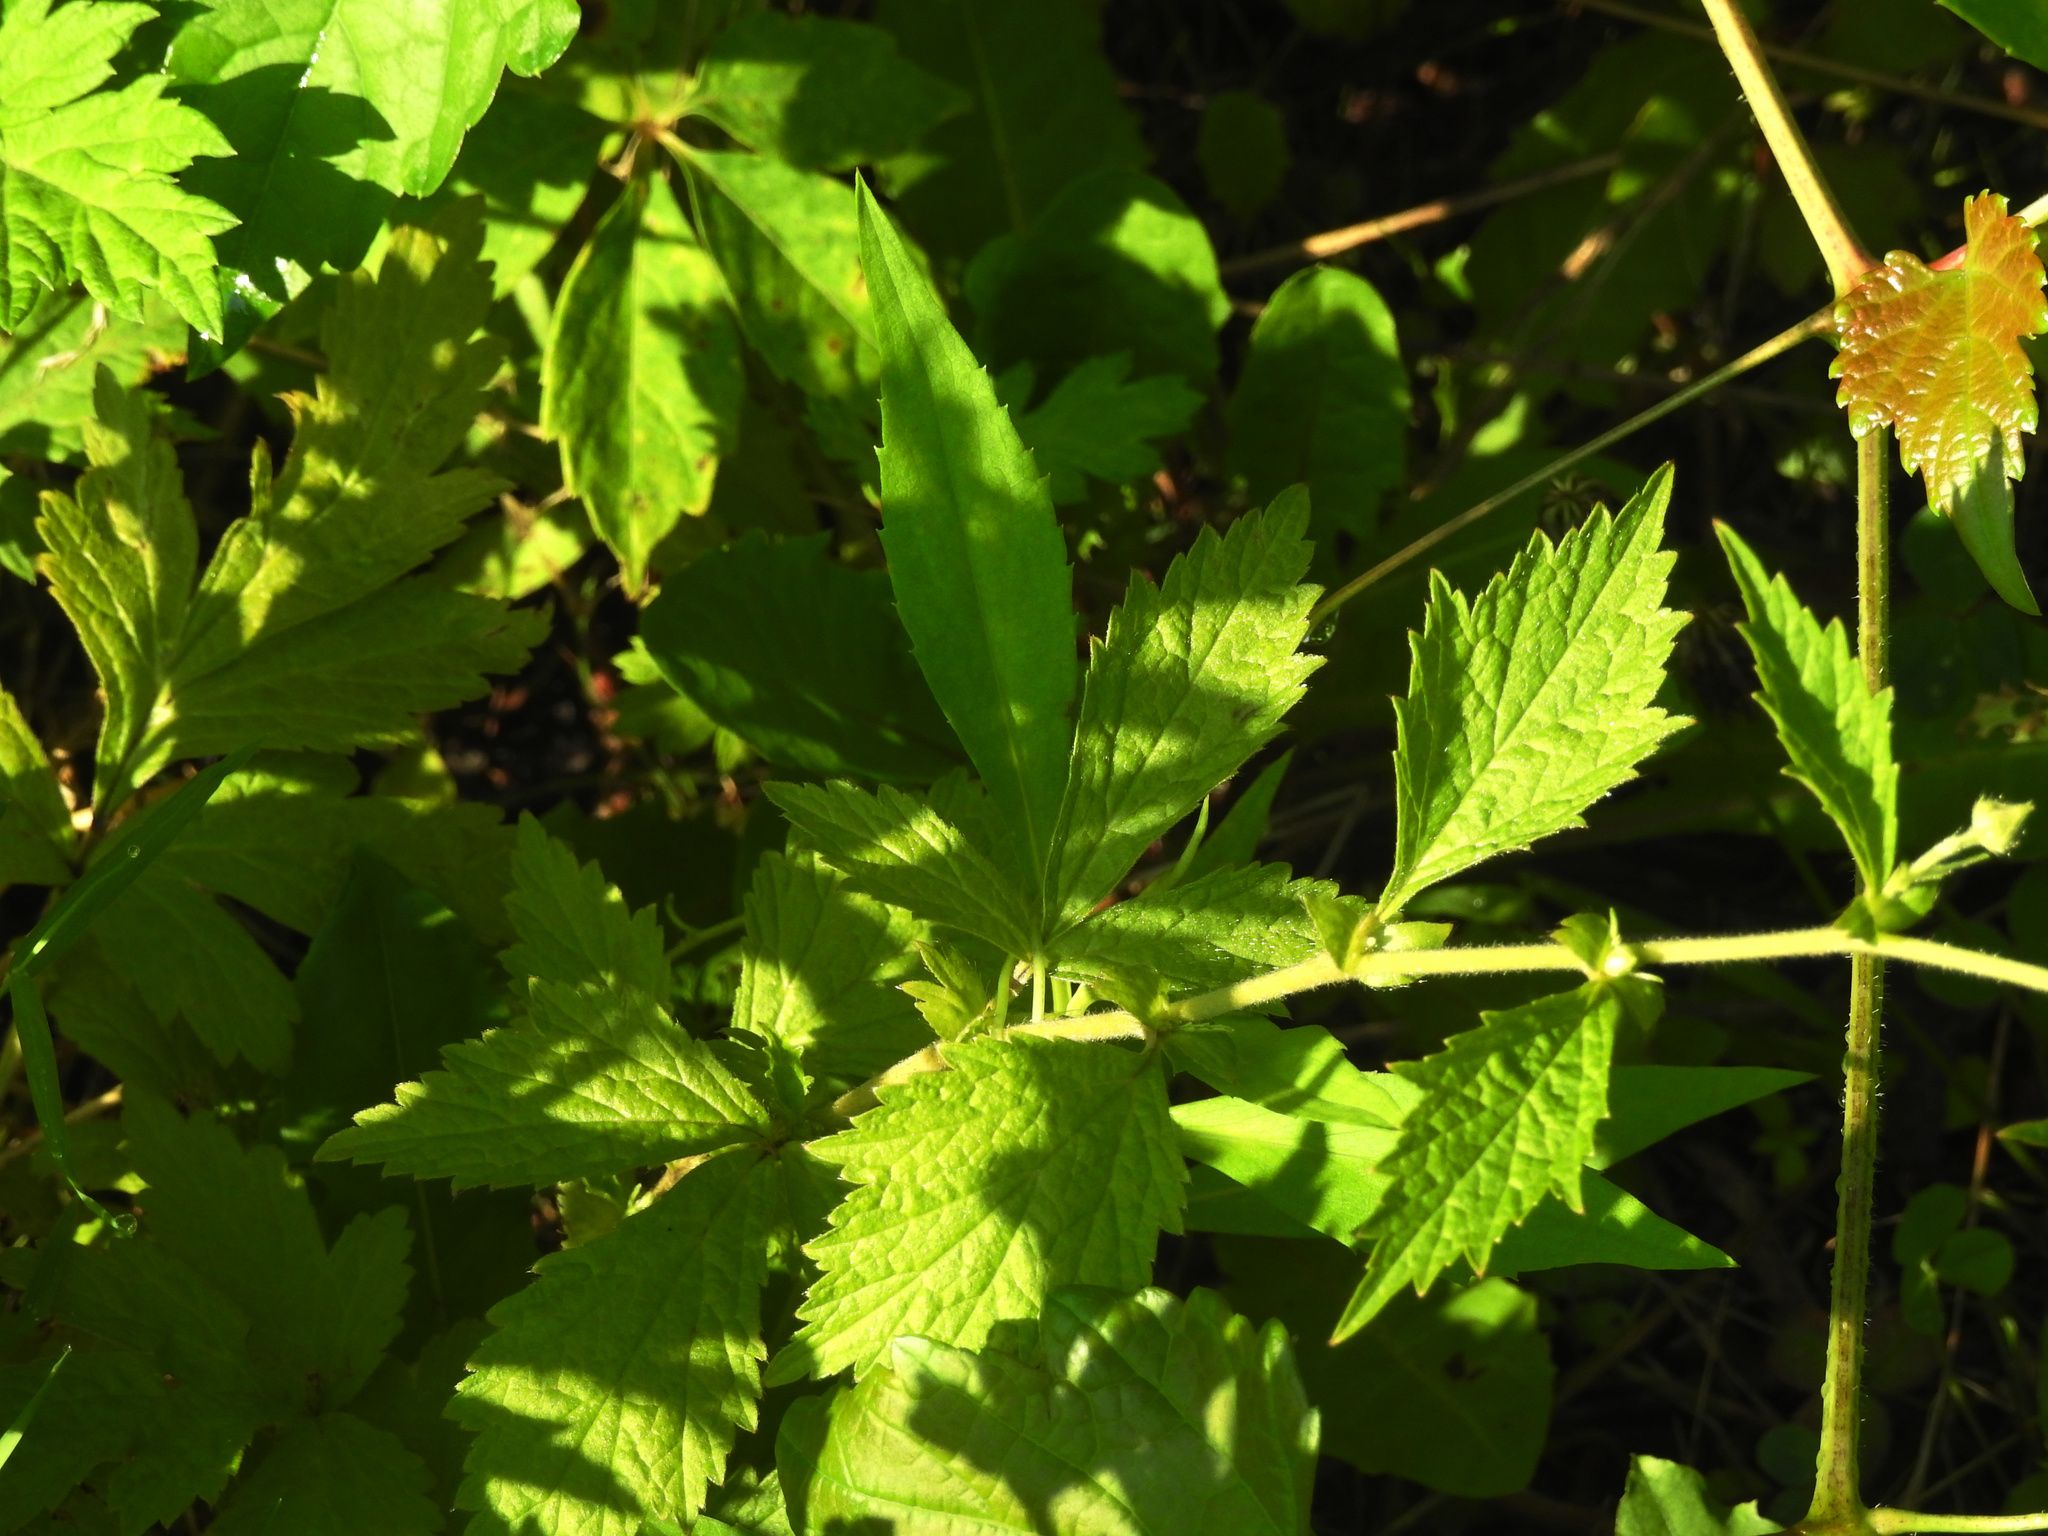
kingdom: Plantae
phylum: Tracheophyta
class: Magnoliopsida
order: Rosales
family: Rosaceae
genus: Geum
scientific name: Geum canadense
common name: White avens
